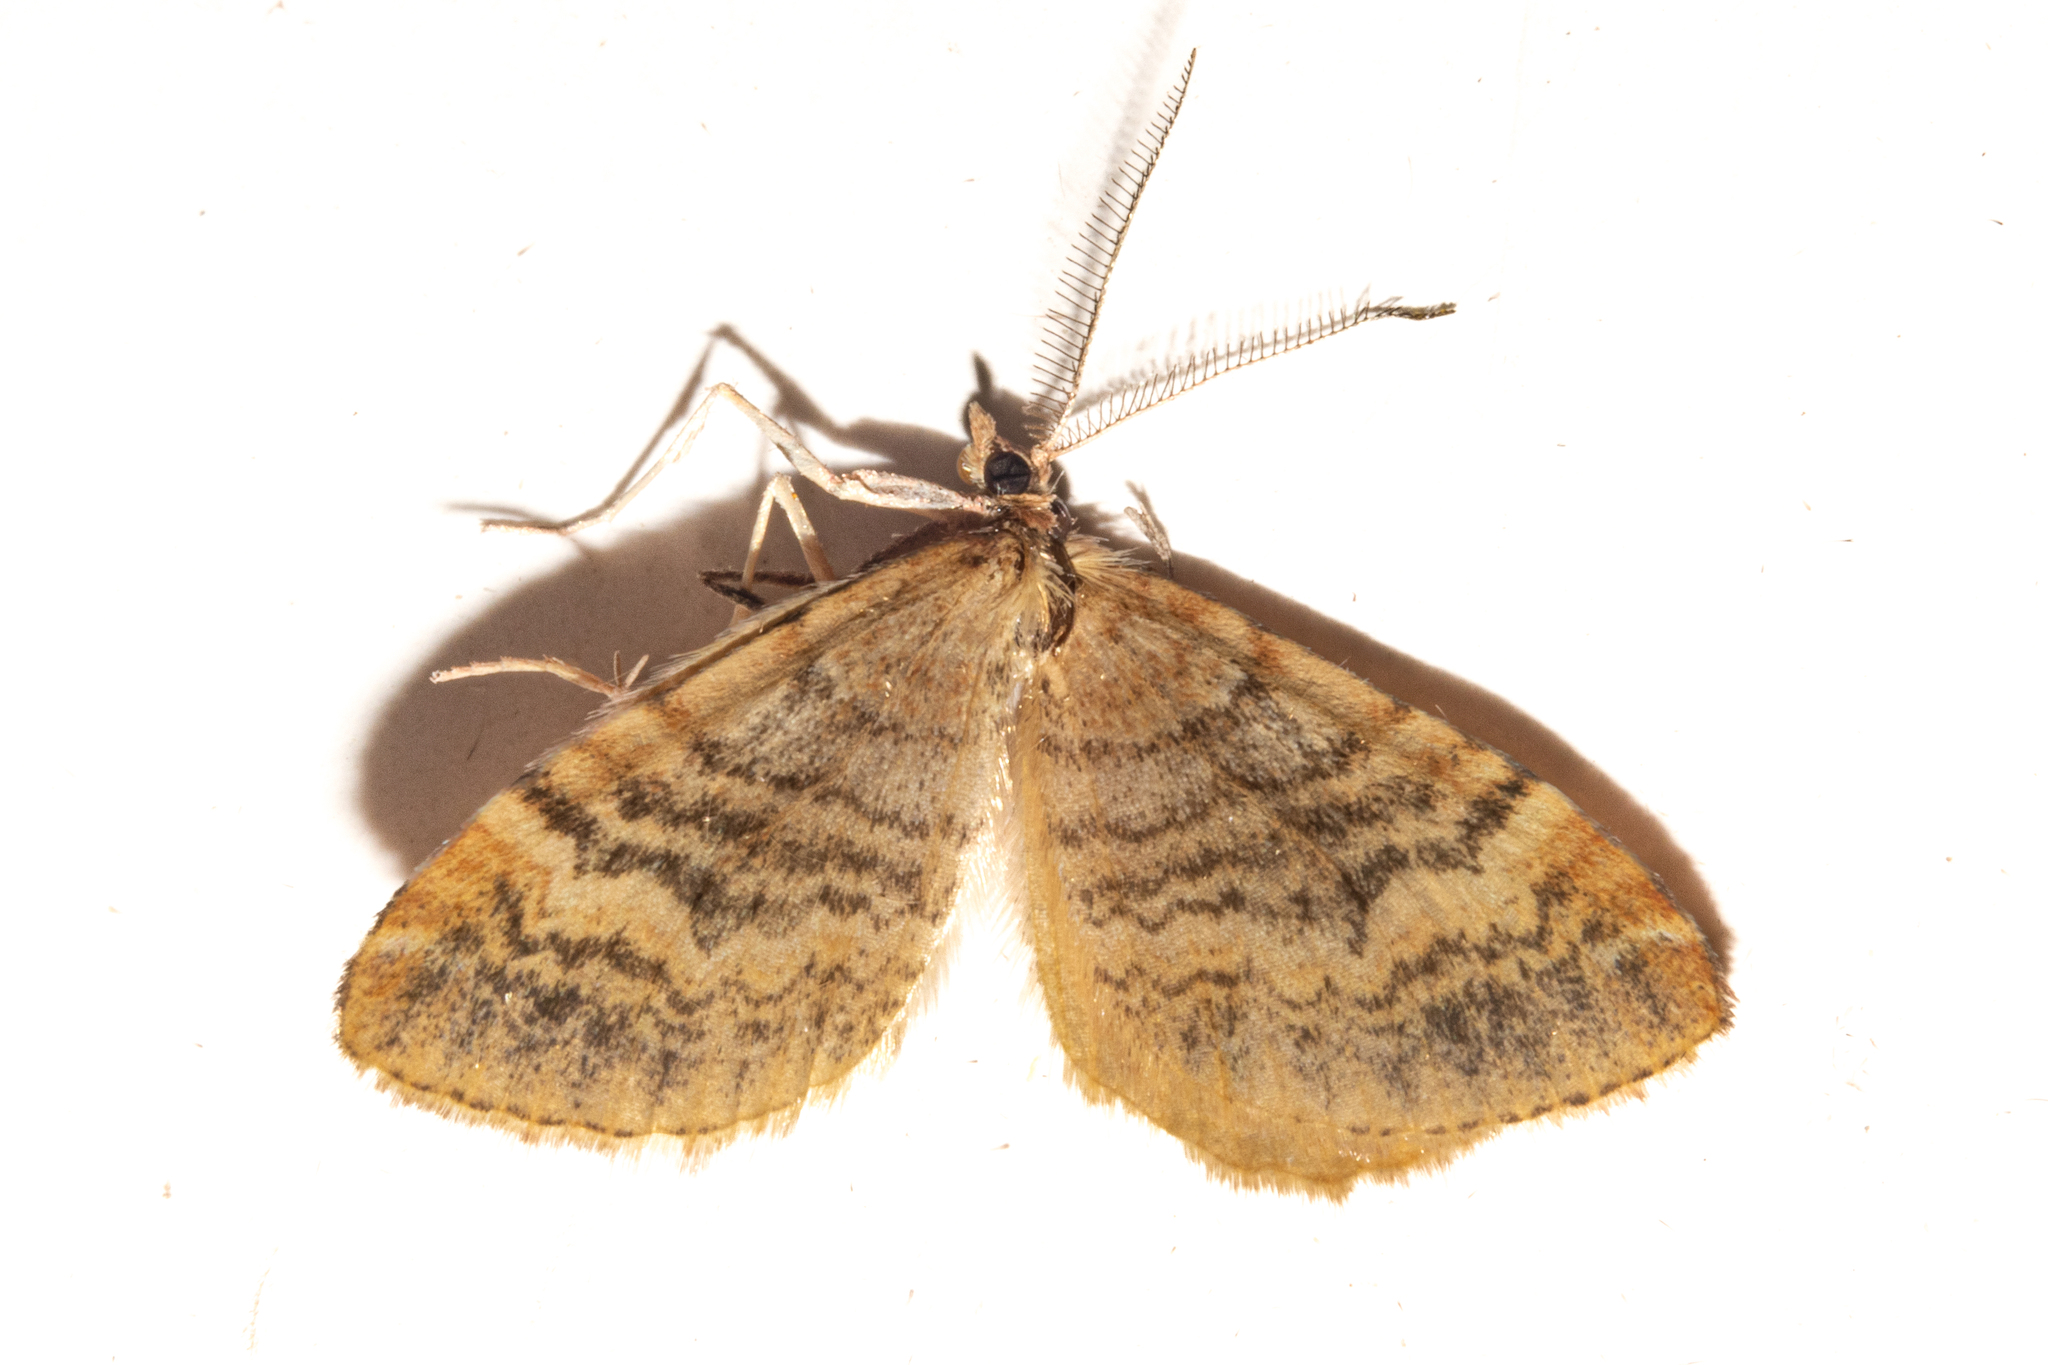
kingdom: Animalia
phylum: Arthropoda
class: Insecta
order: Lepidoptera
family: Geometridae
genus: Asaphodes
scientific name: Asaphodes recta
